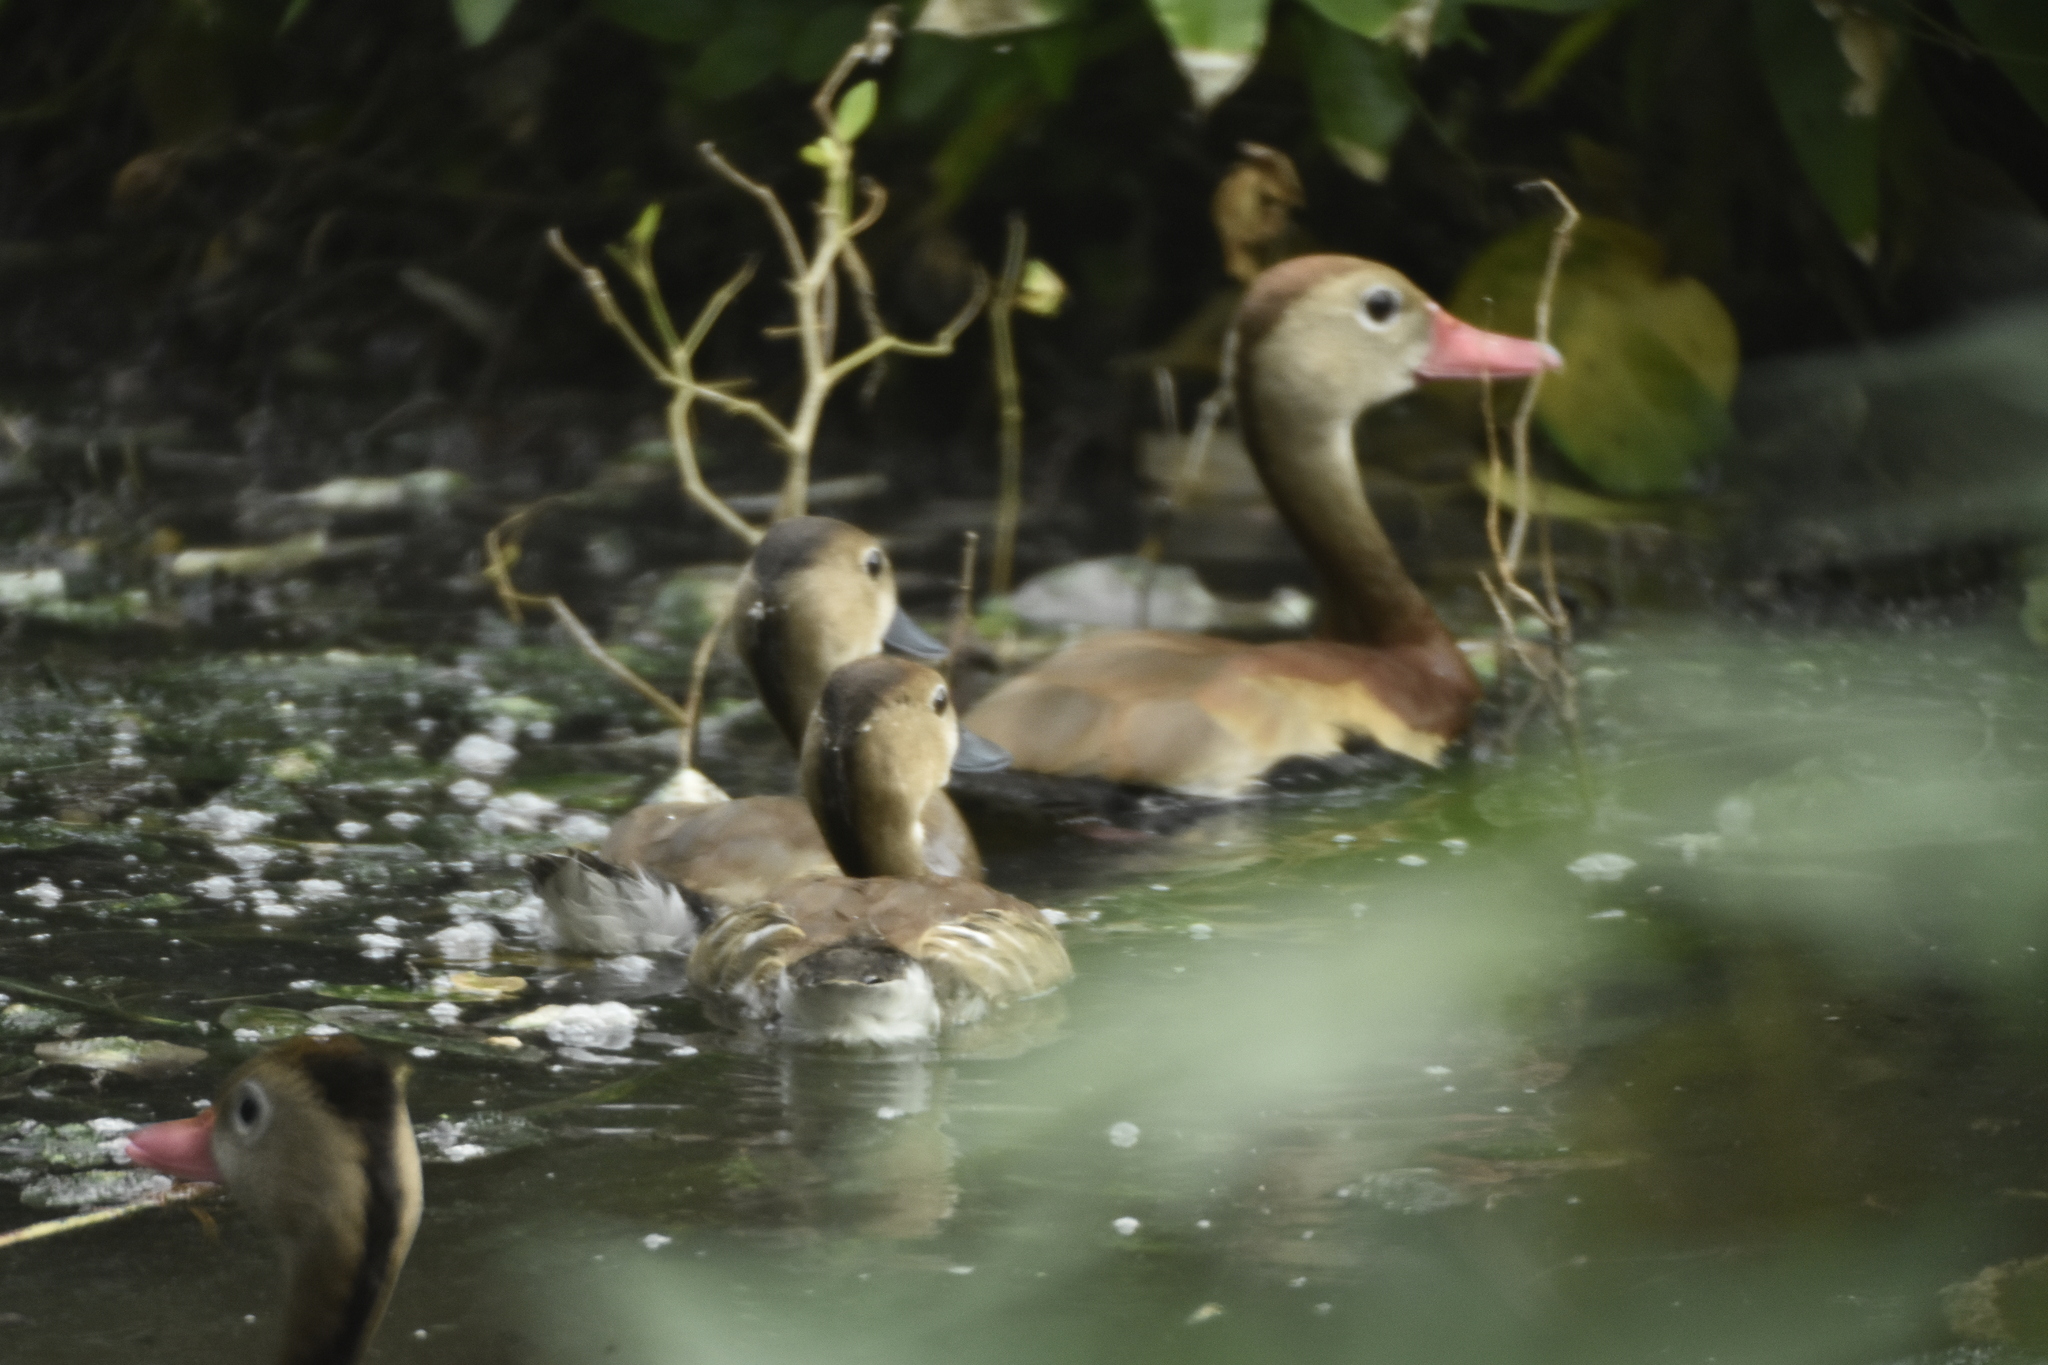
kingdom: Animalia
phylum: Chordata
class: Aves
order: Anseriformes
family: Anatidae
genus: Dendrocygna
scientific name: Dendrocygna autumnalis
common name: Black-bellied whistling duck
